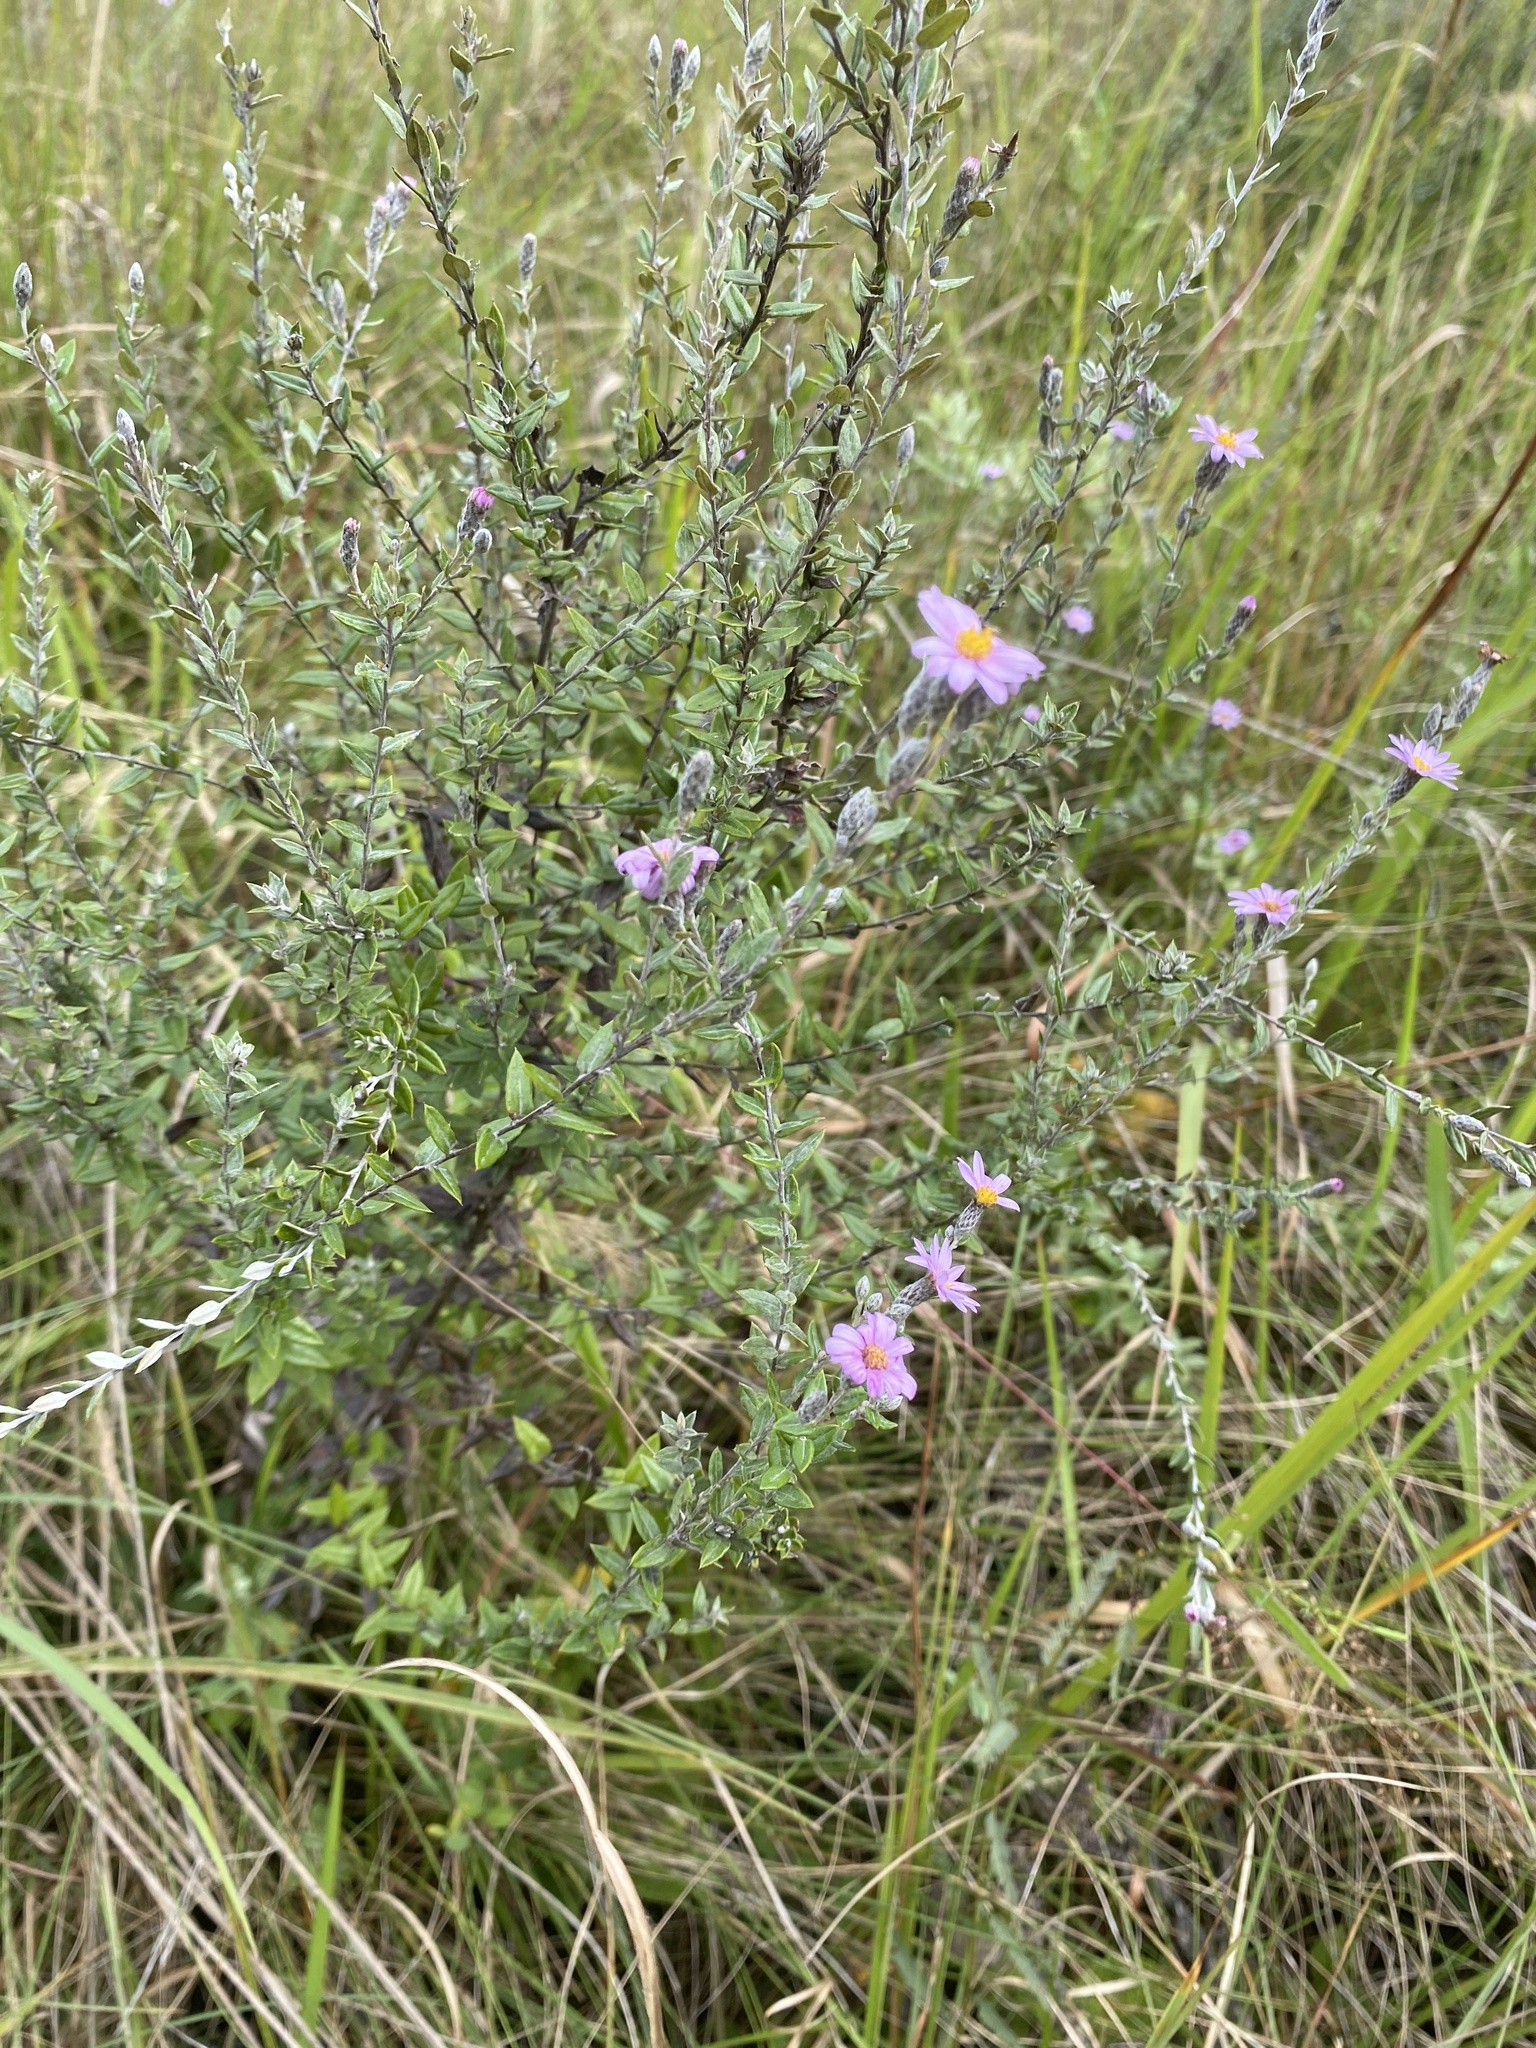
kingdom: Plantae
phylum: Tracheophyta
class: Magnoliopsida
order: Asterales
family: Asteraceae
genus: Athrixia
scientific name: Athrixia phylicoides
